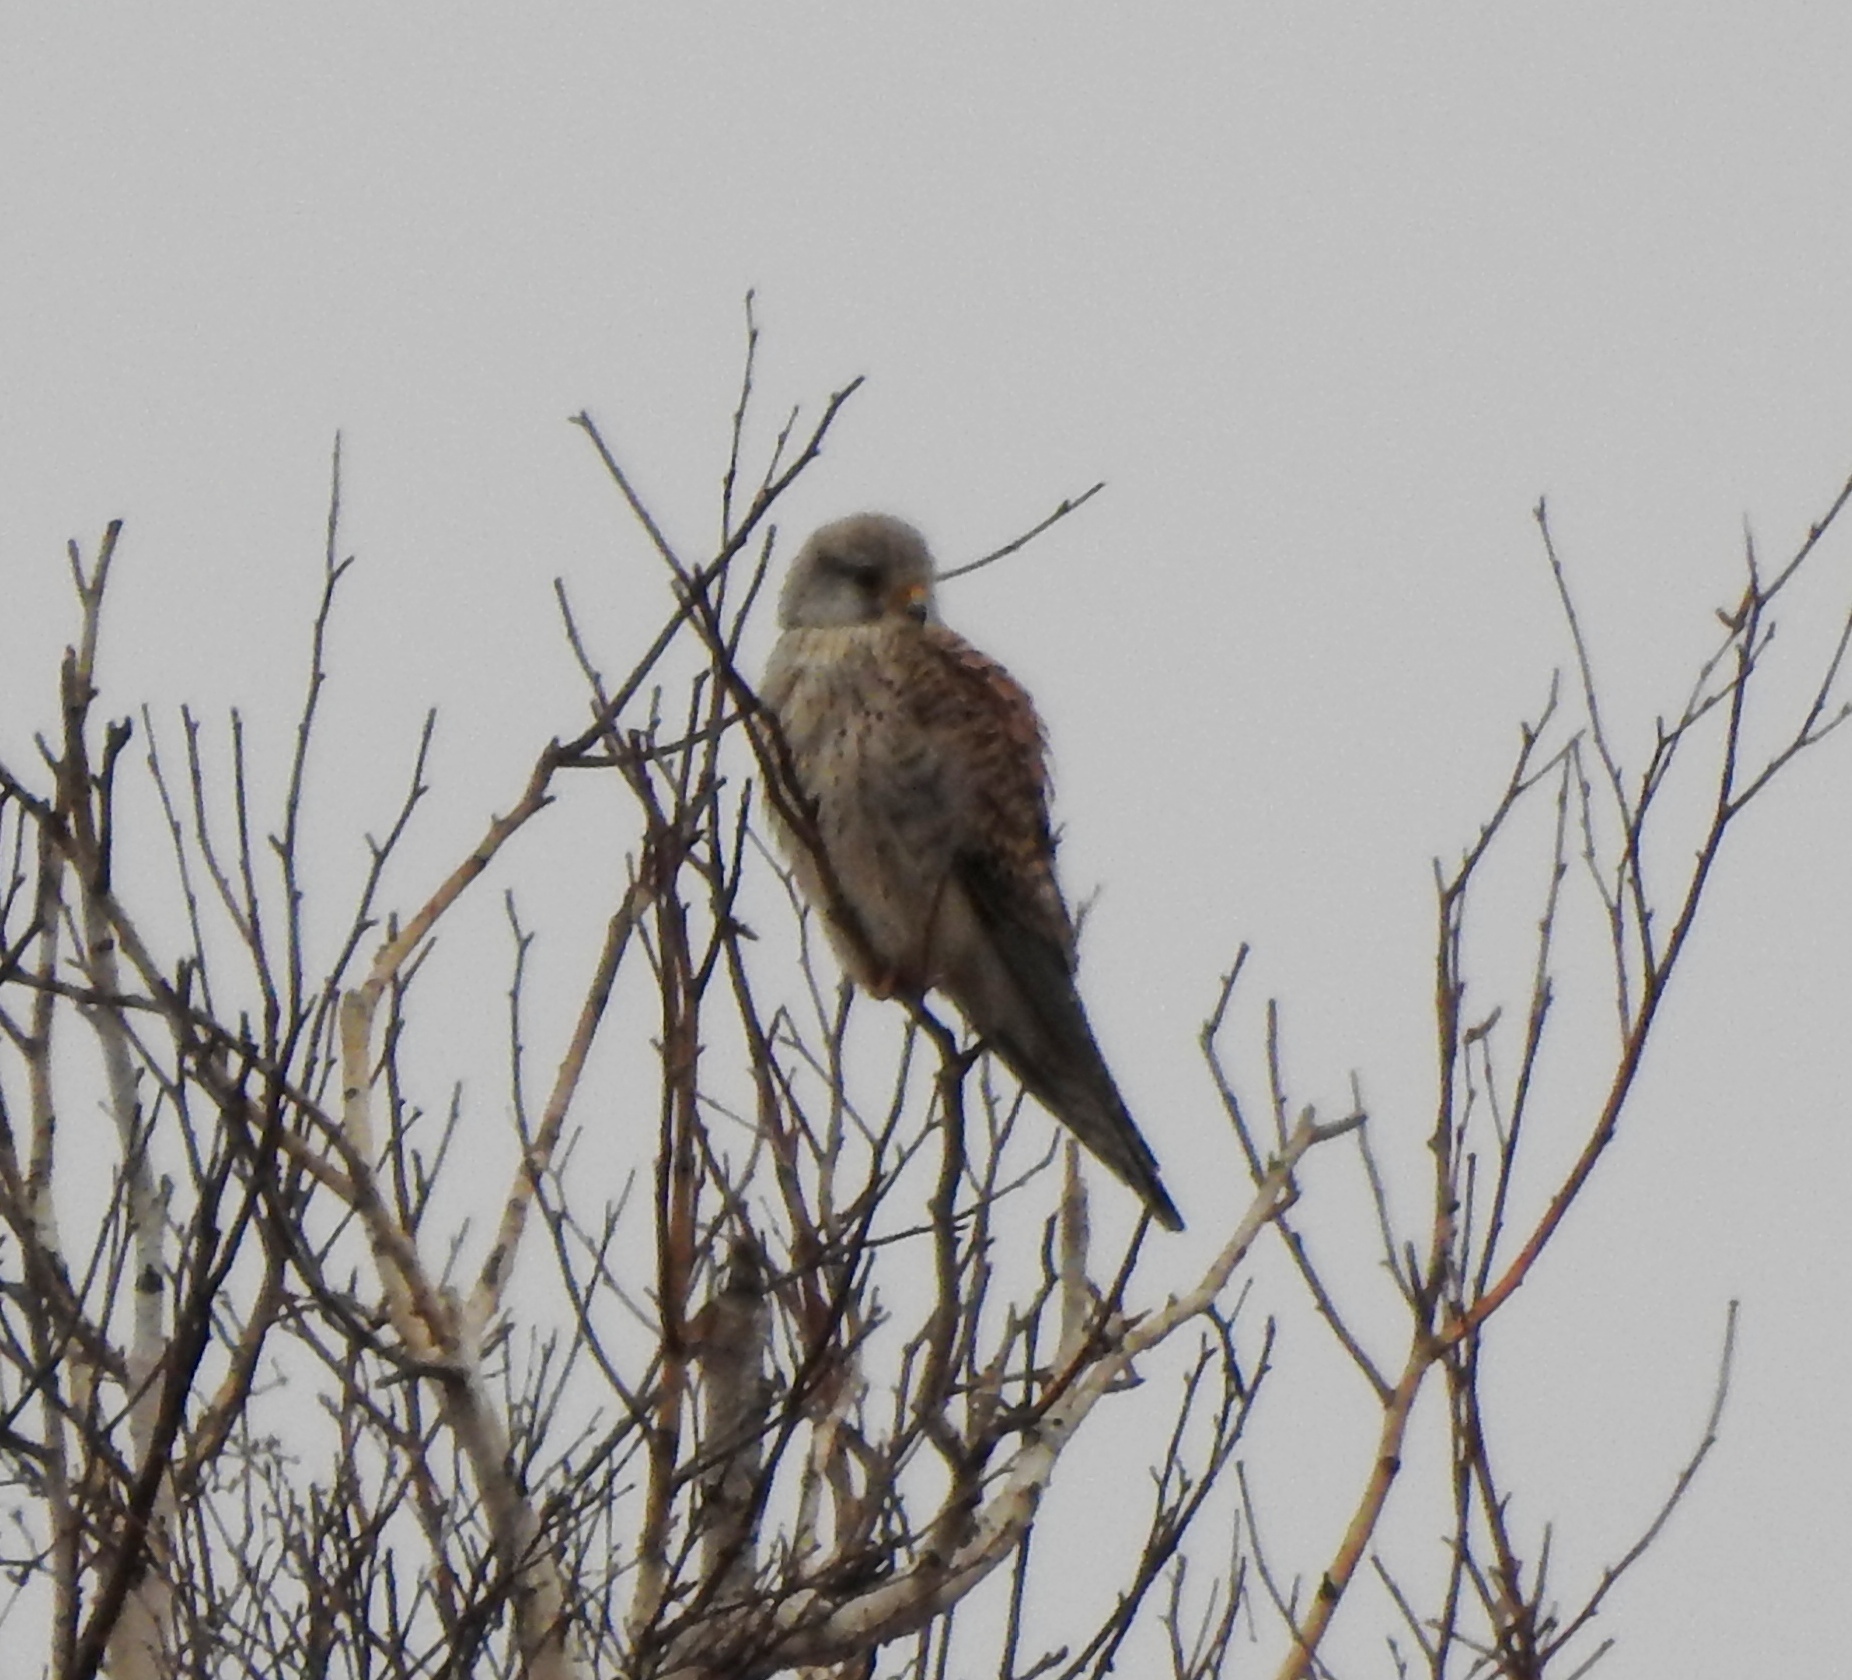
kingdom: Animalia
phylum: Chordata
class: Aves
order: Falconiformes
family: Falconidae
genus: Falco
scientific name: Falco tinnunculus
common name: Common kestrel
